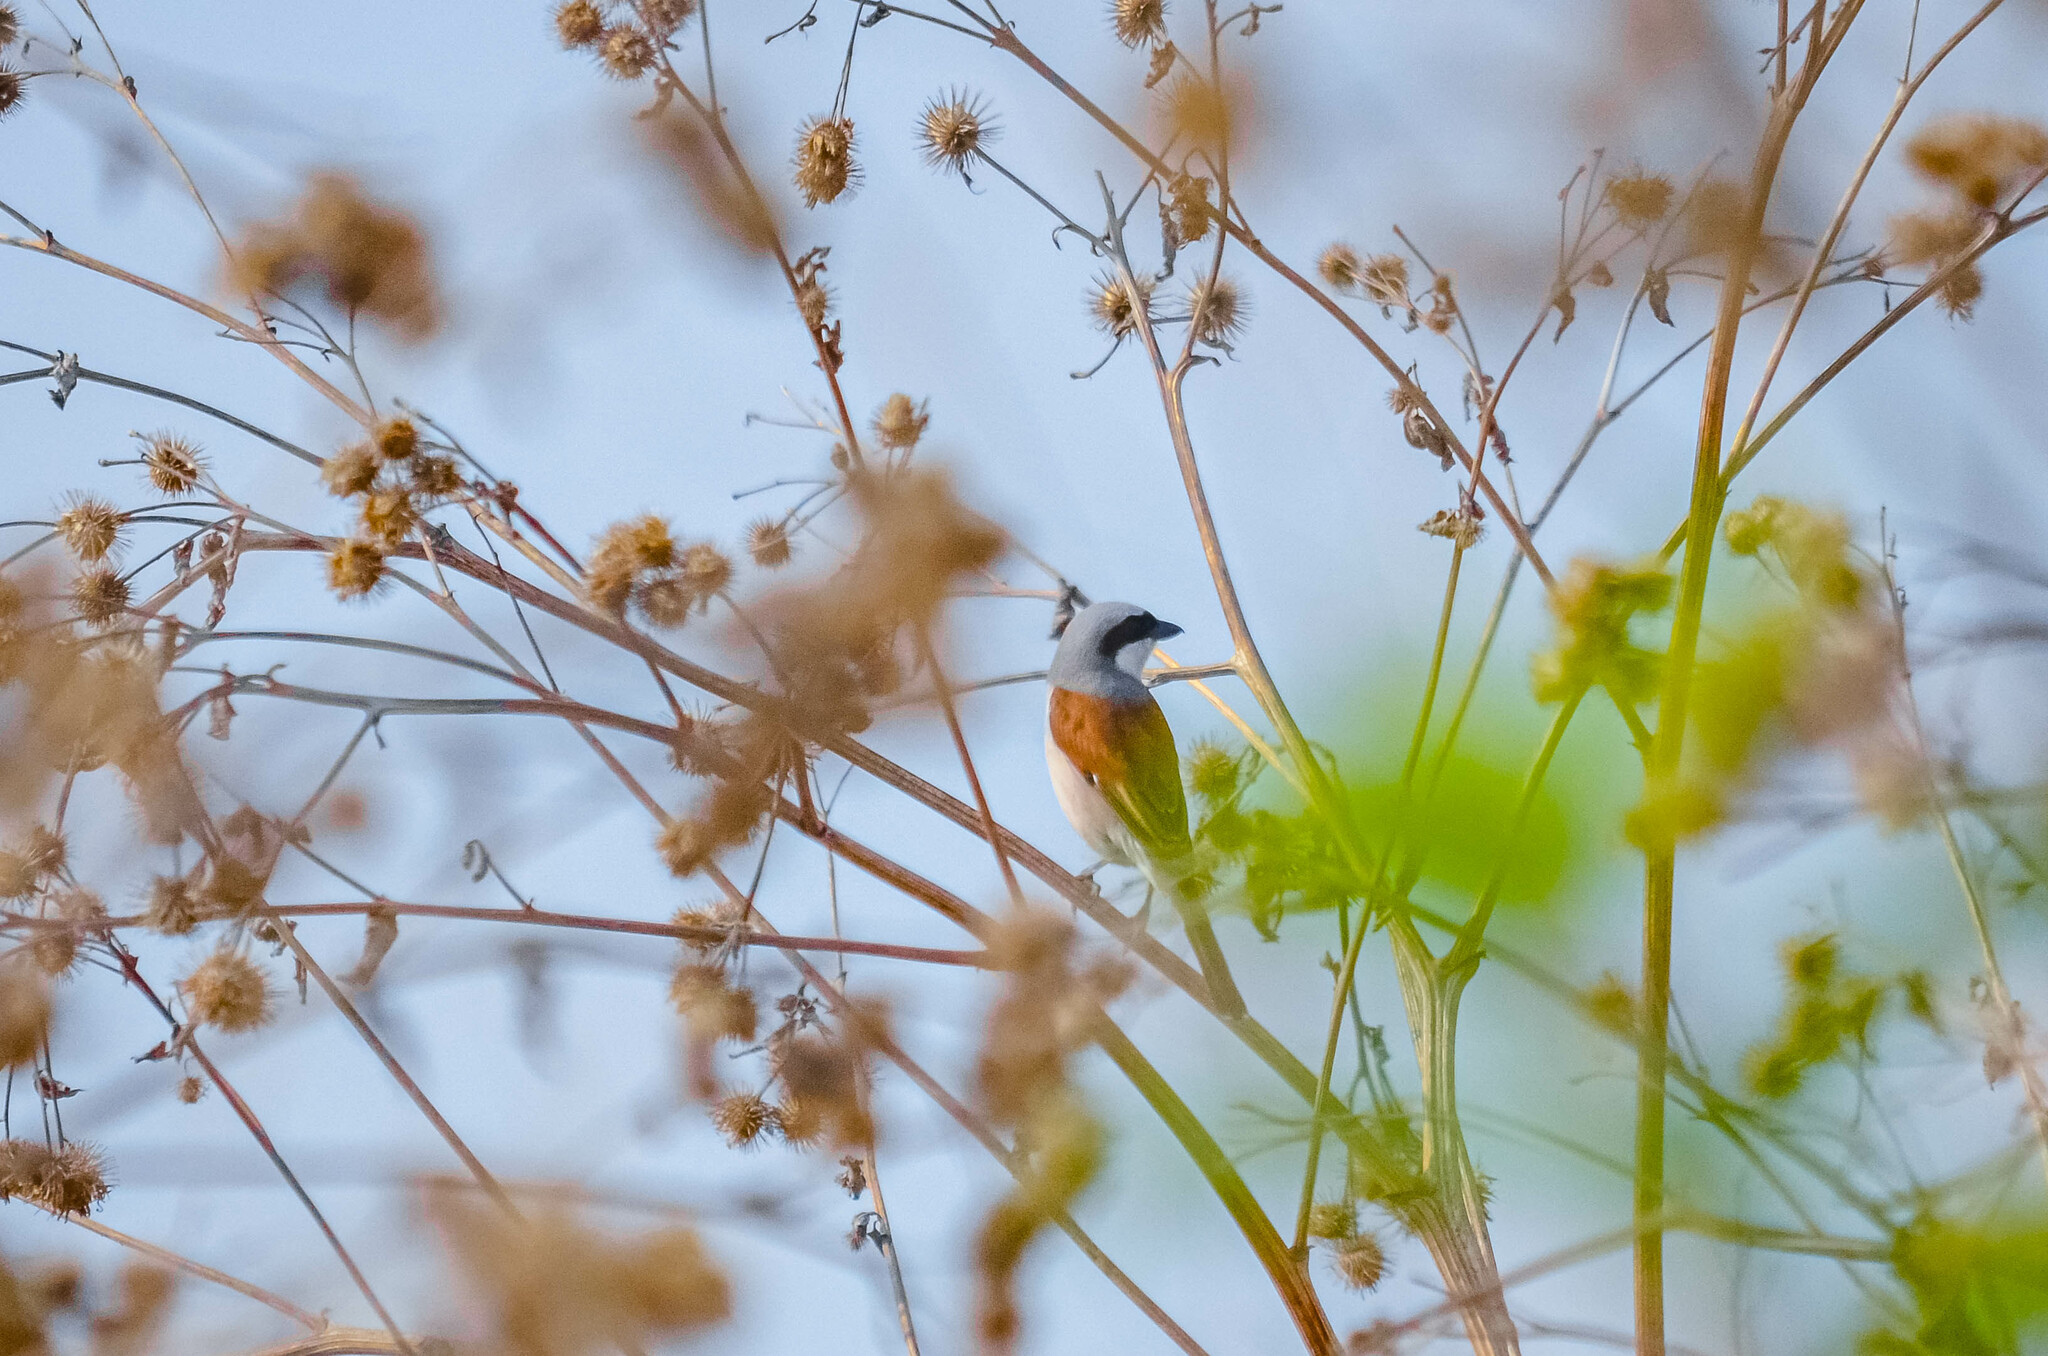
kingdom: Animalia
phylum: Chordata
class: Aves
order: Passeriformes
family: Laniidae
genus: Lanius
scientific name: Lanius collurio
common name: Red-backed shrike
